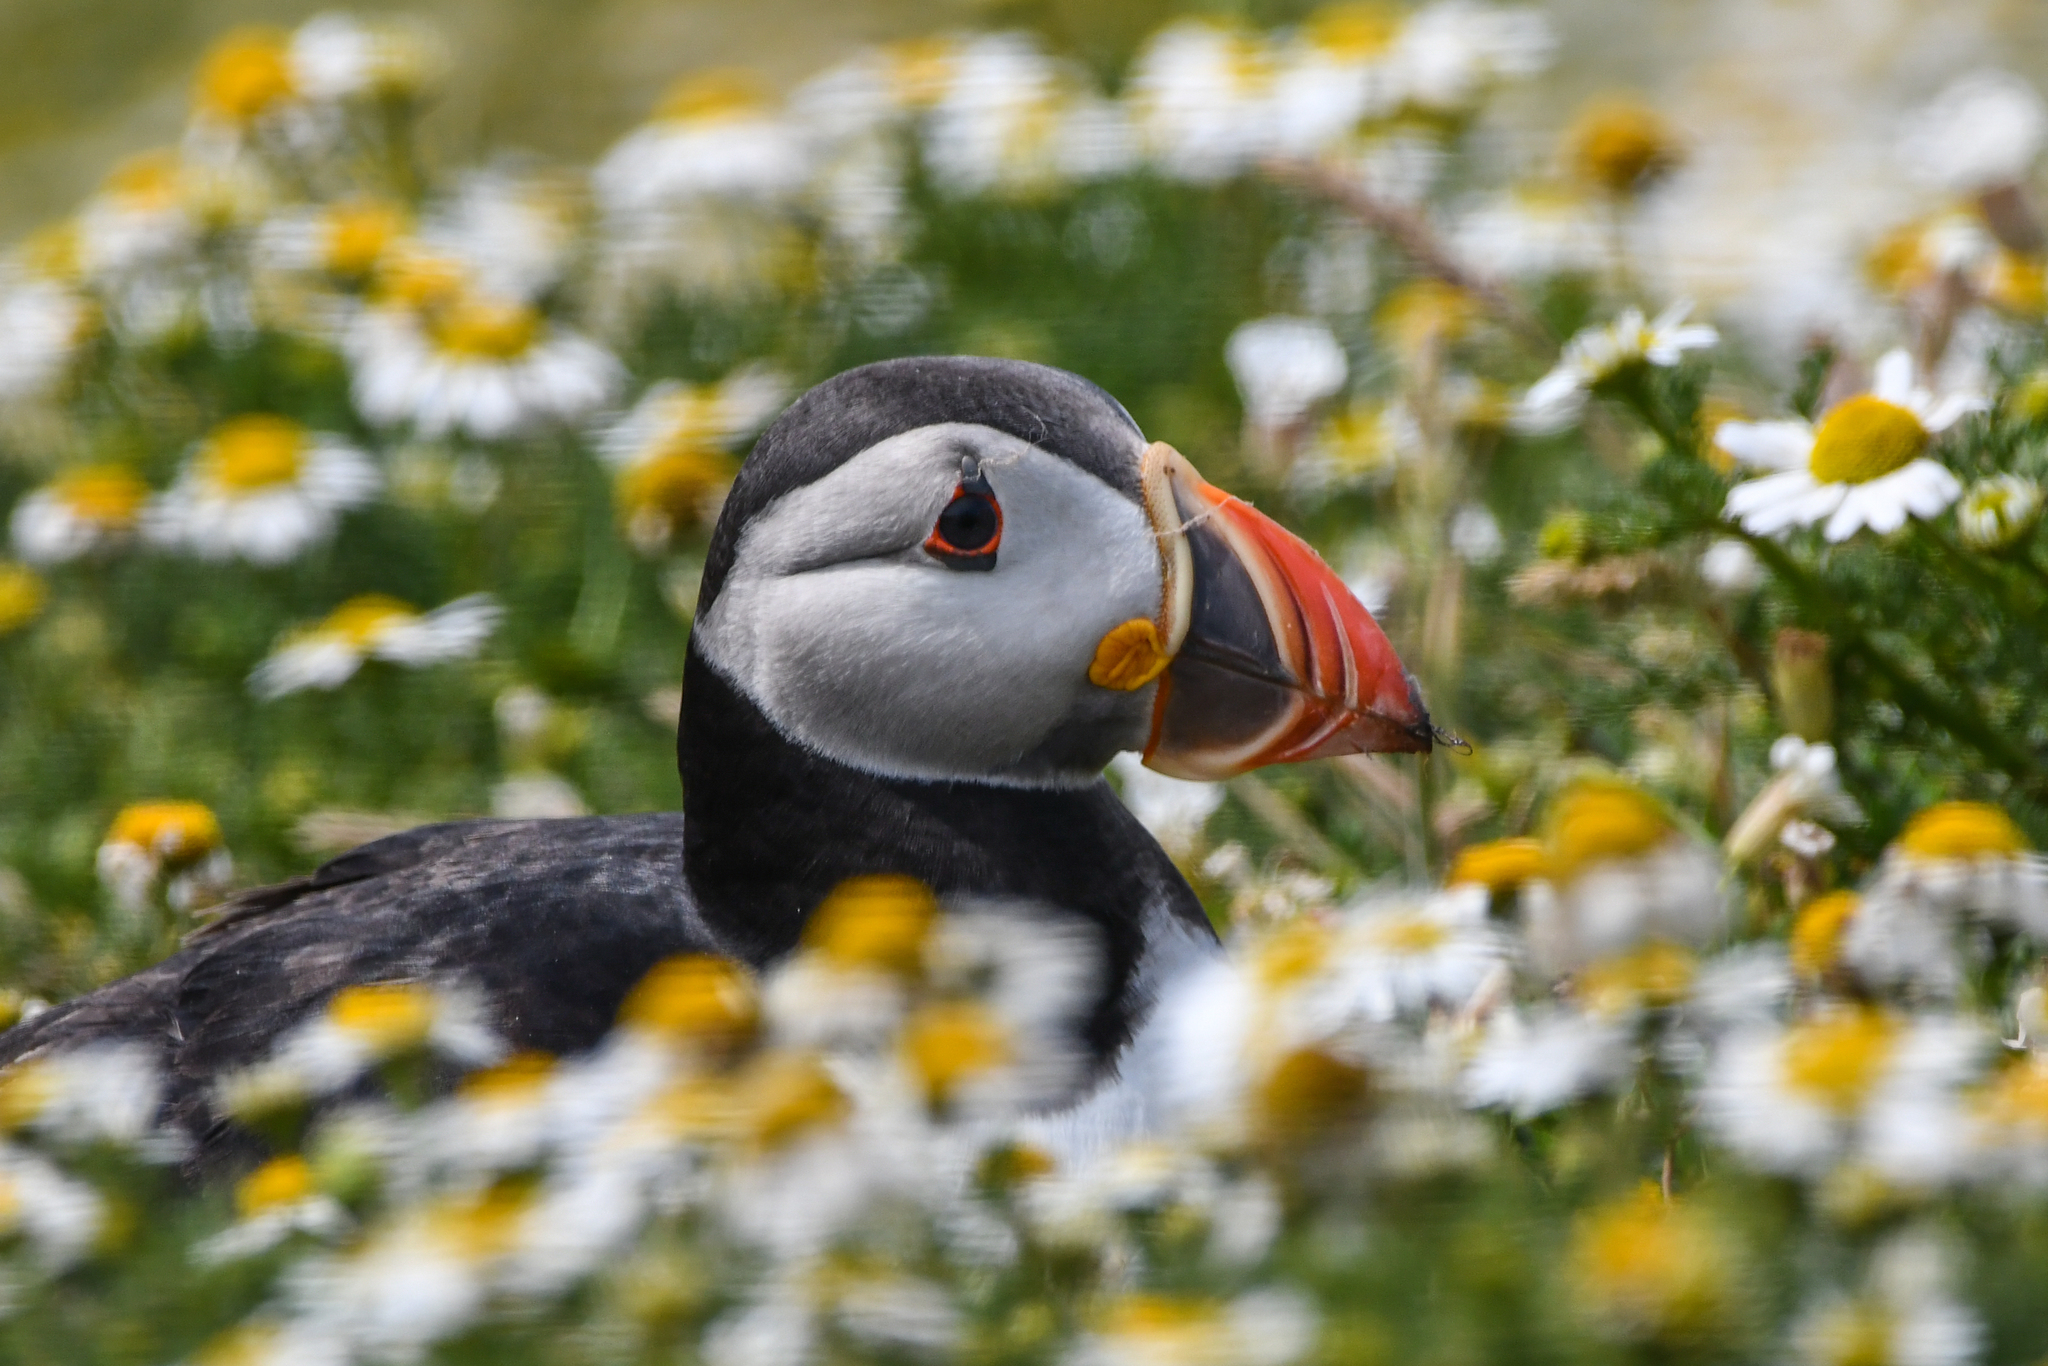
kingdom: Animalia
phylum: Chordata
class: Aves
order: Charadriiformes
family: Alcidae
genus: Fratercula
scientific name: Fratercula arctica
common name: Atlantic puffin
